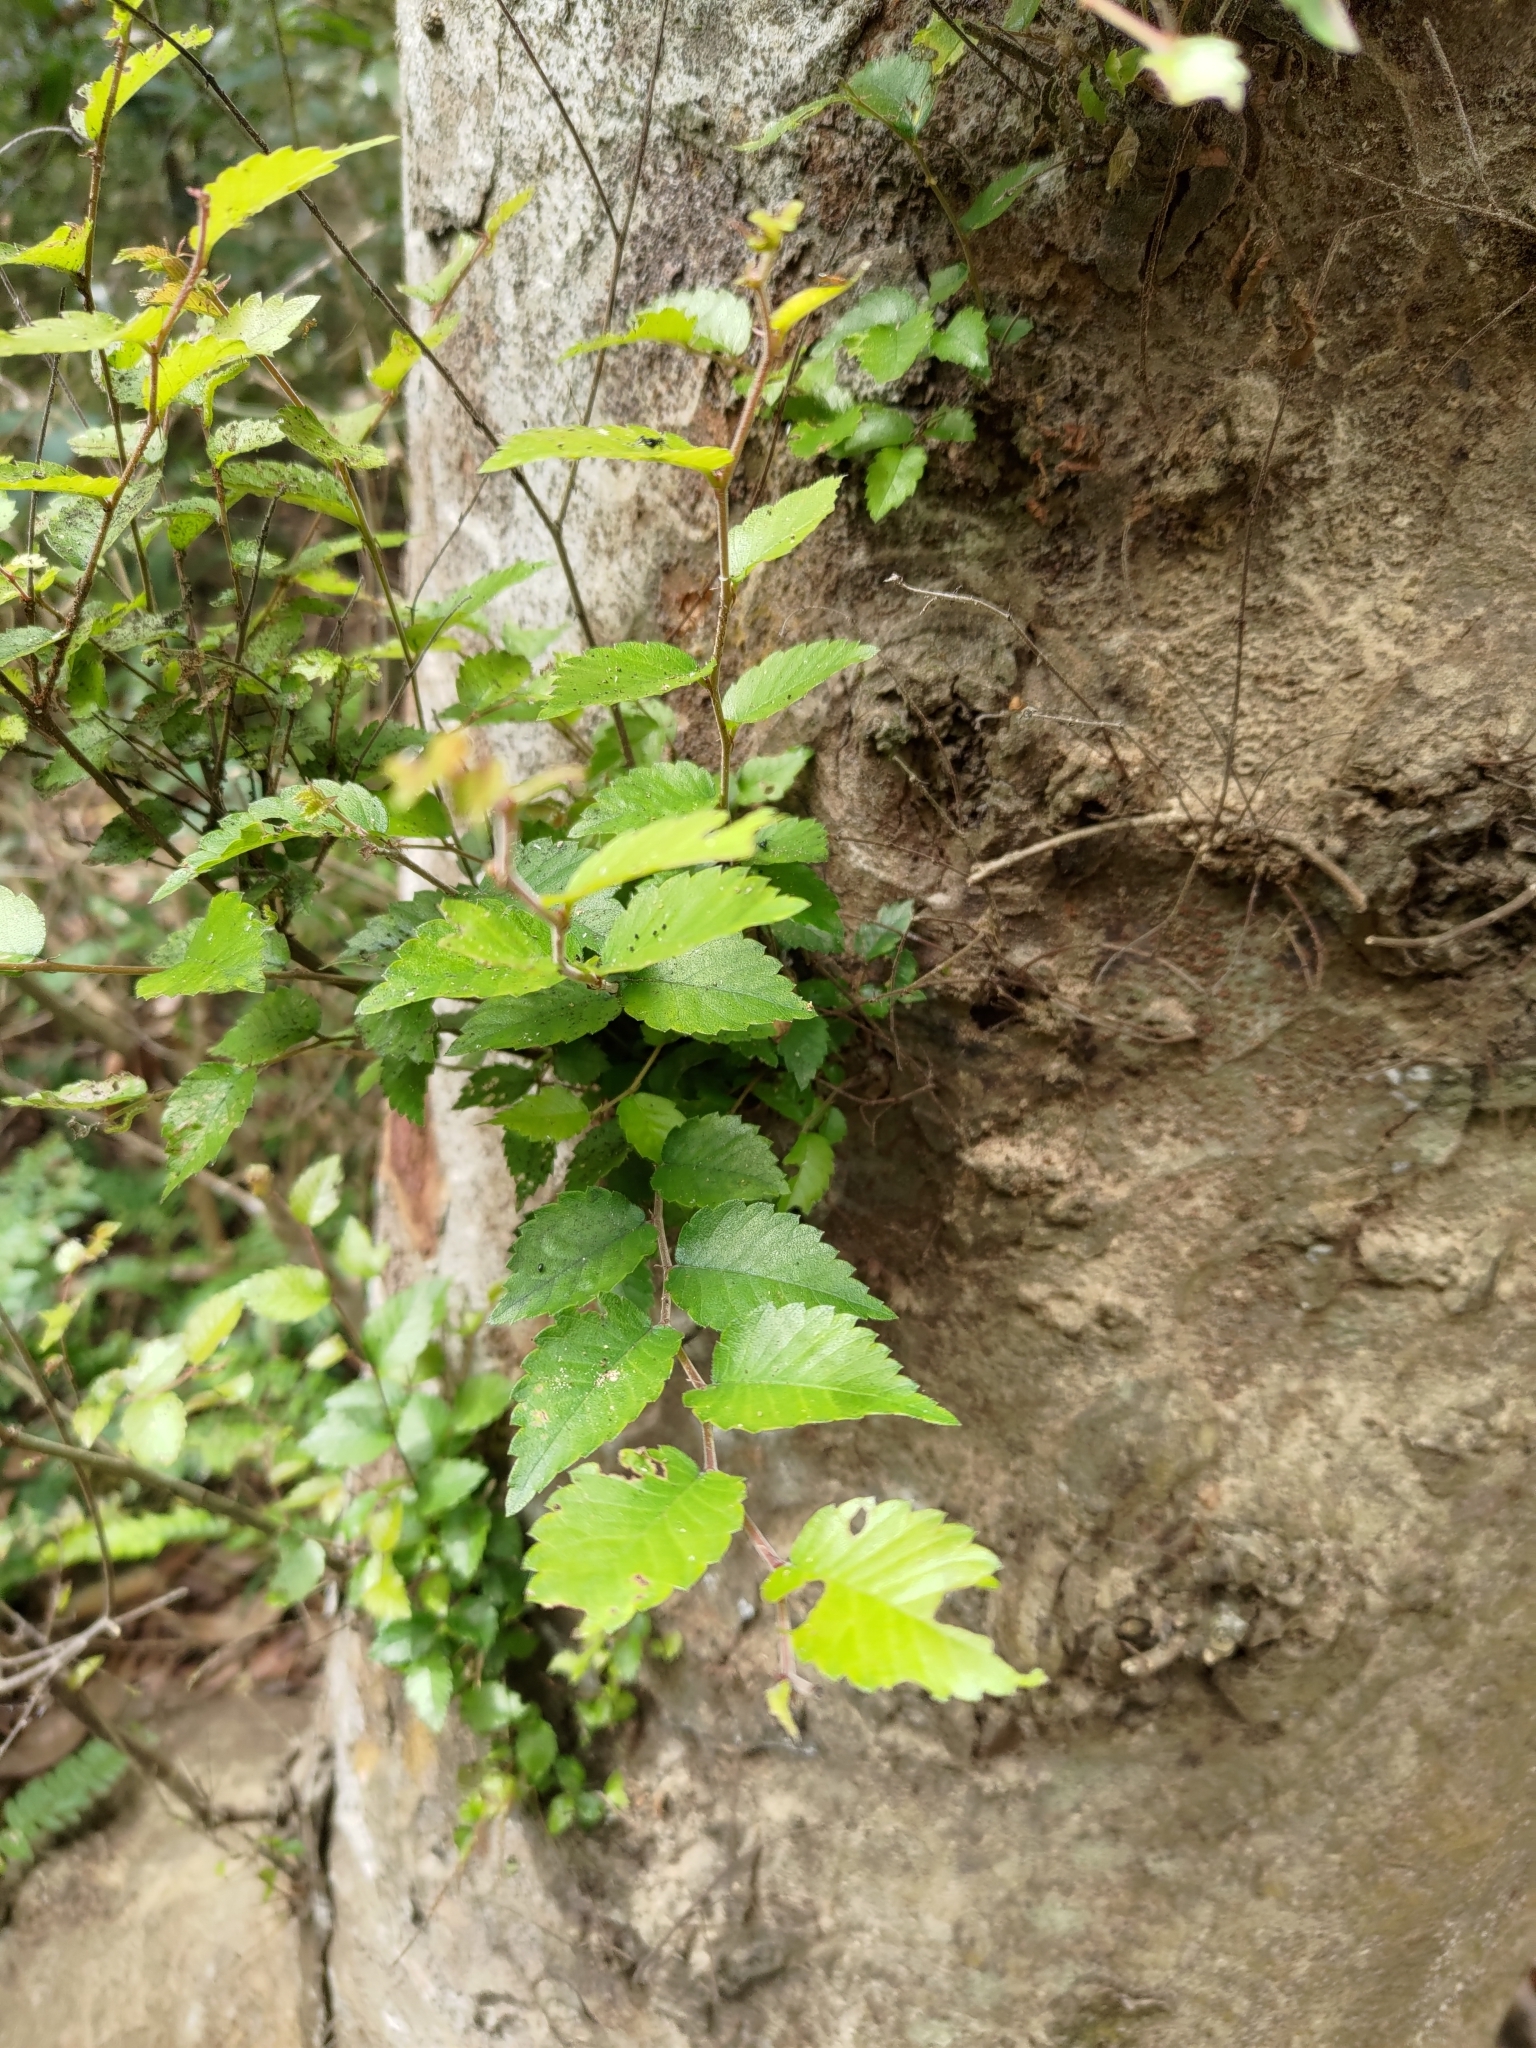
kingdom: Plantae
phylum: Tracheophyta
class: Magnoliopsida
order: Rosales
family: Ulmaceae
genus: Zelkova
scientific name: Zelkova serrata
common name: Japanese zelkova
